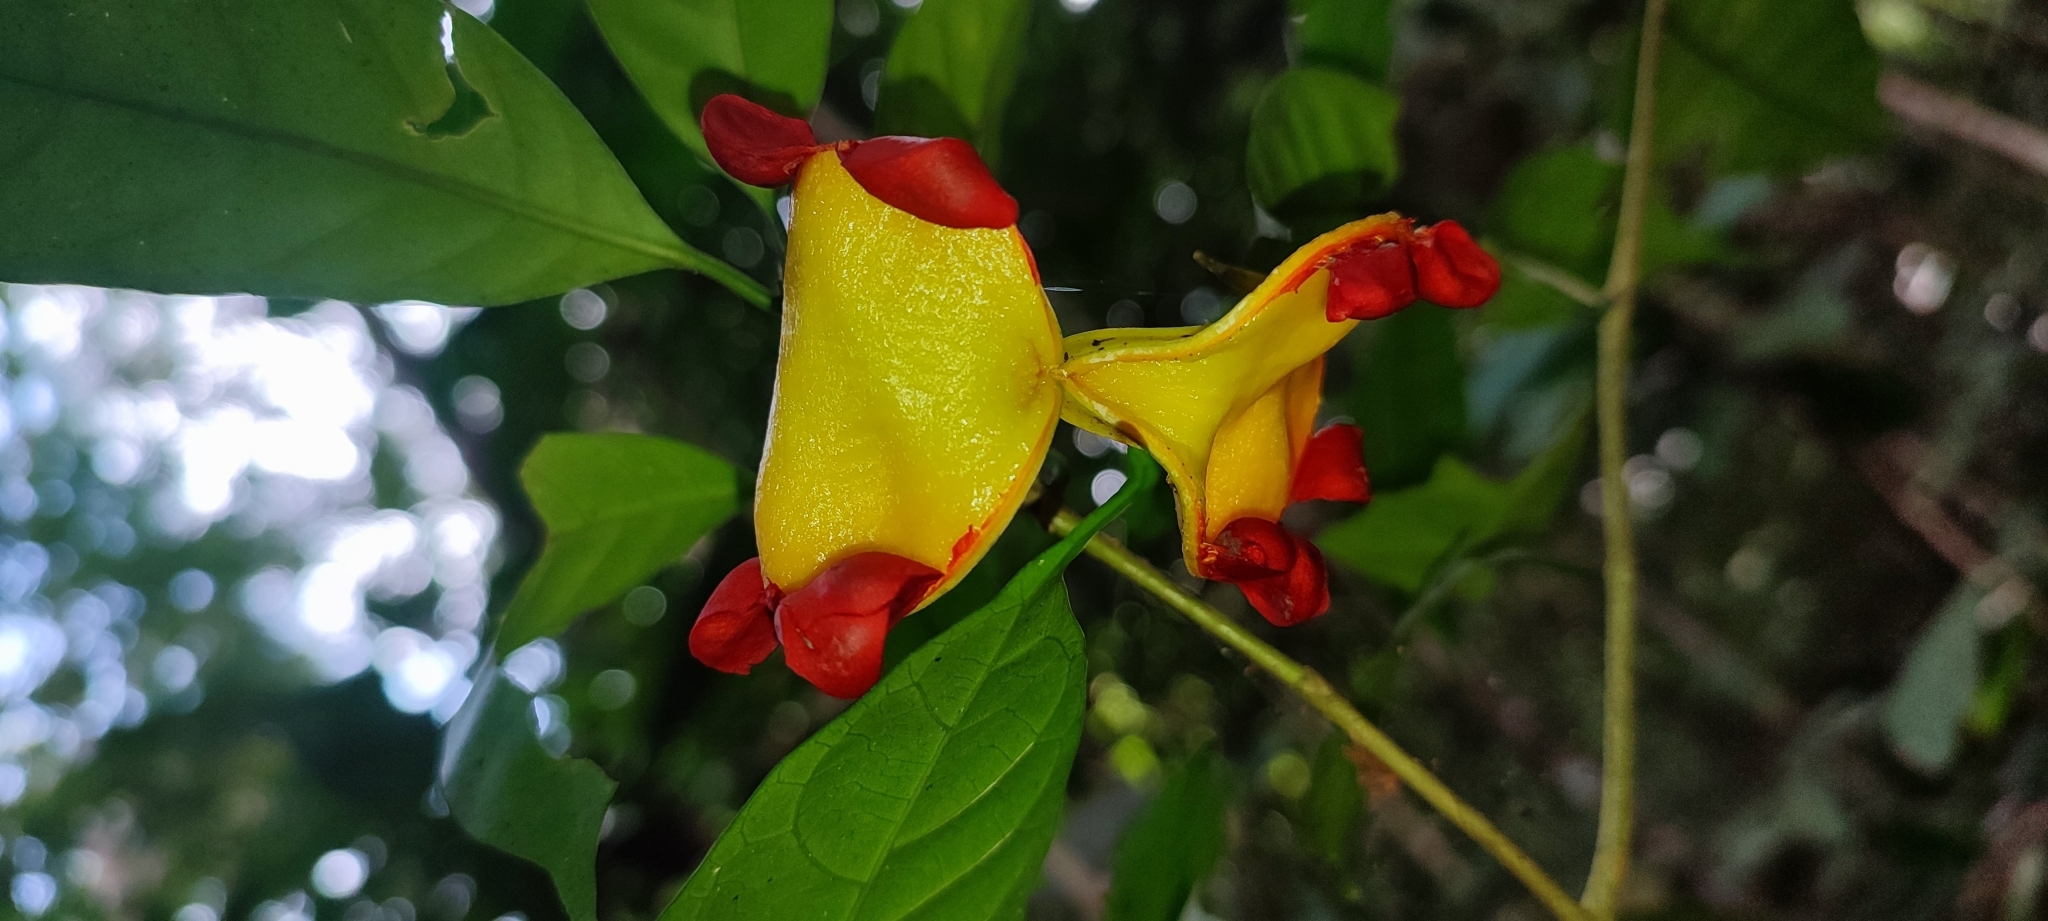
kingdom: Plantae
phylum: Tracheophyta
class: Magnoliopsida
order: Gentianales
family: Apocynaceae
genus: Tabernaemontana
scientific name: Tabernaemontana gamblei
